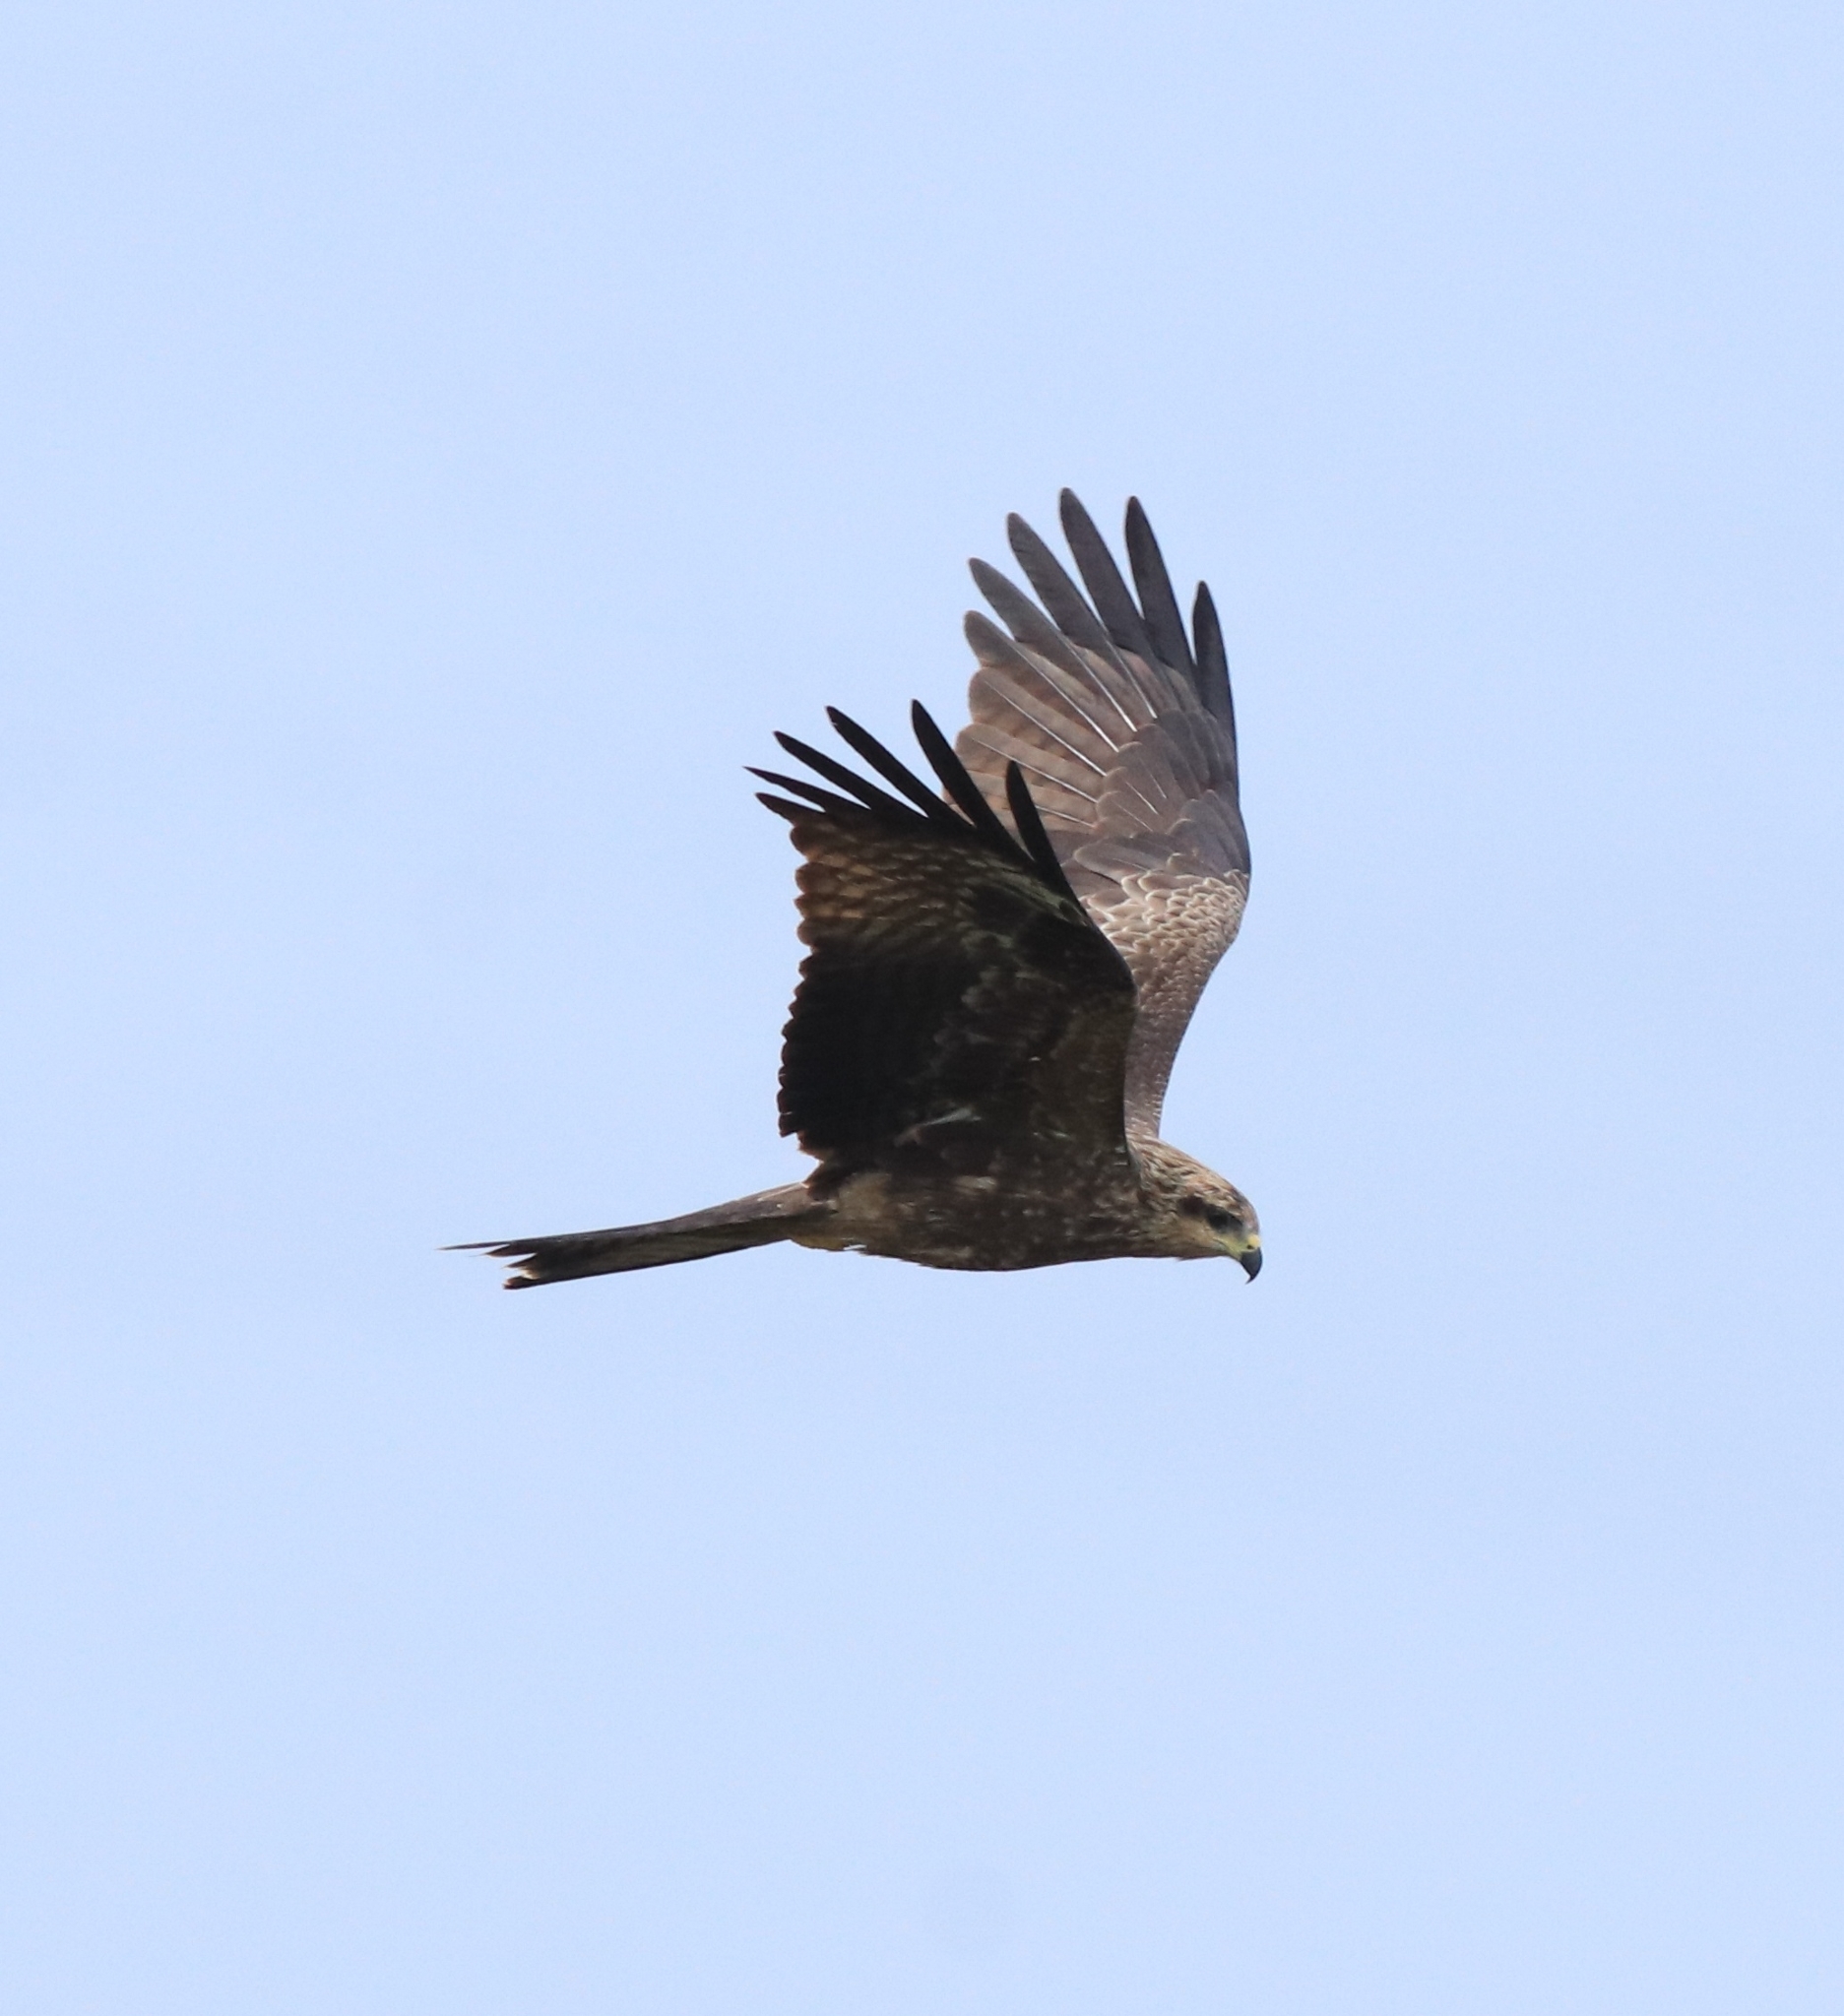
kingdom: Animalia
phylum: Chordata
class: Aves
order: Accipitriformes
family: Accipitridae
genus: Milvus
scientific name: Milvus migrans
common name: Black kite
